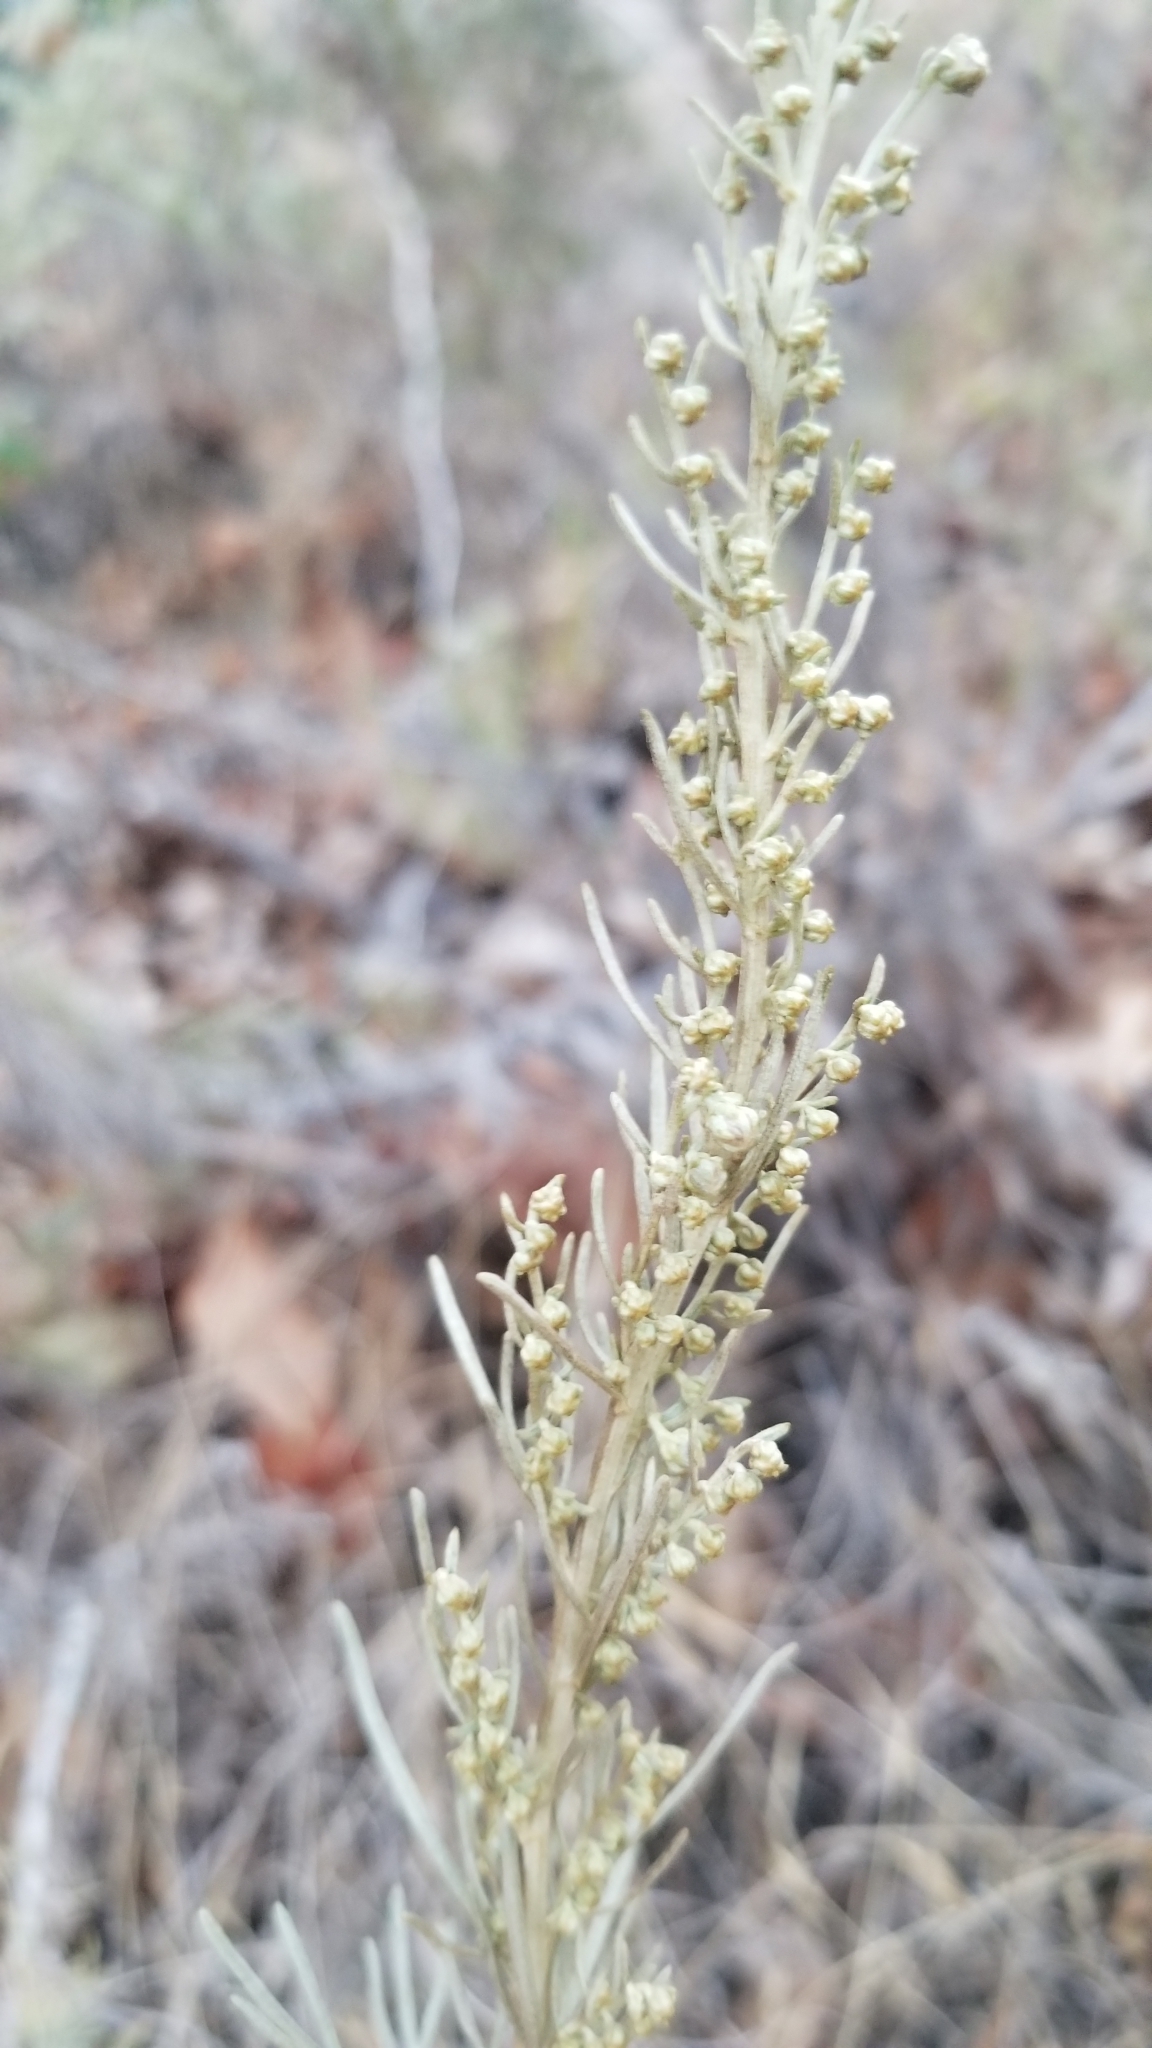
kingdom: Plantae
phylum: Tracheophyta
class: Magnoliopsida
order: Asterales
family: Asteraceae
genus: Artemisia
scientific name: Artemisia californica
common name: California sagebrush
